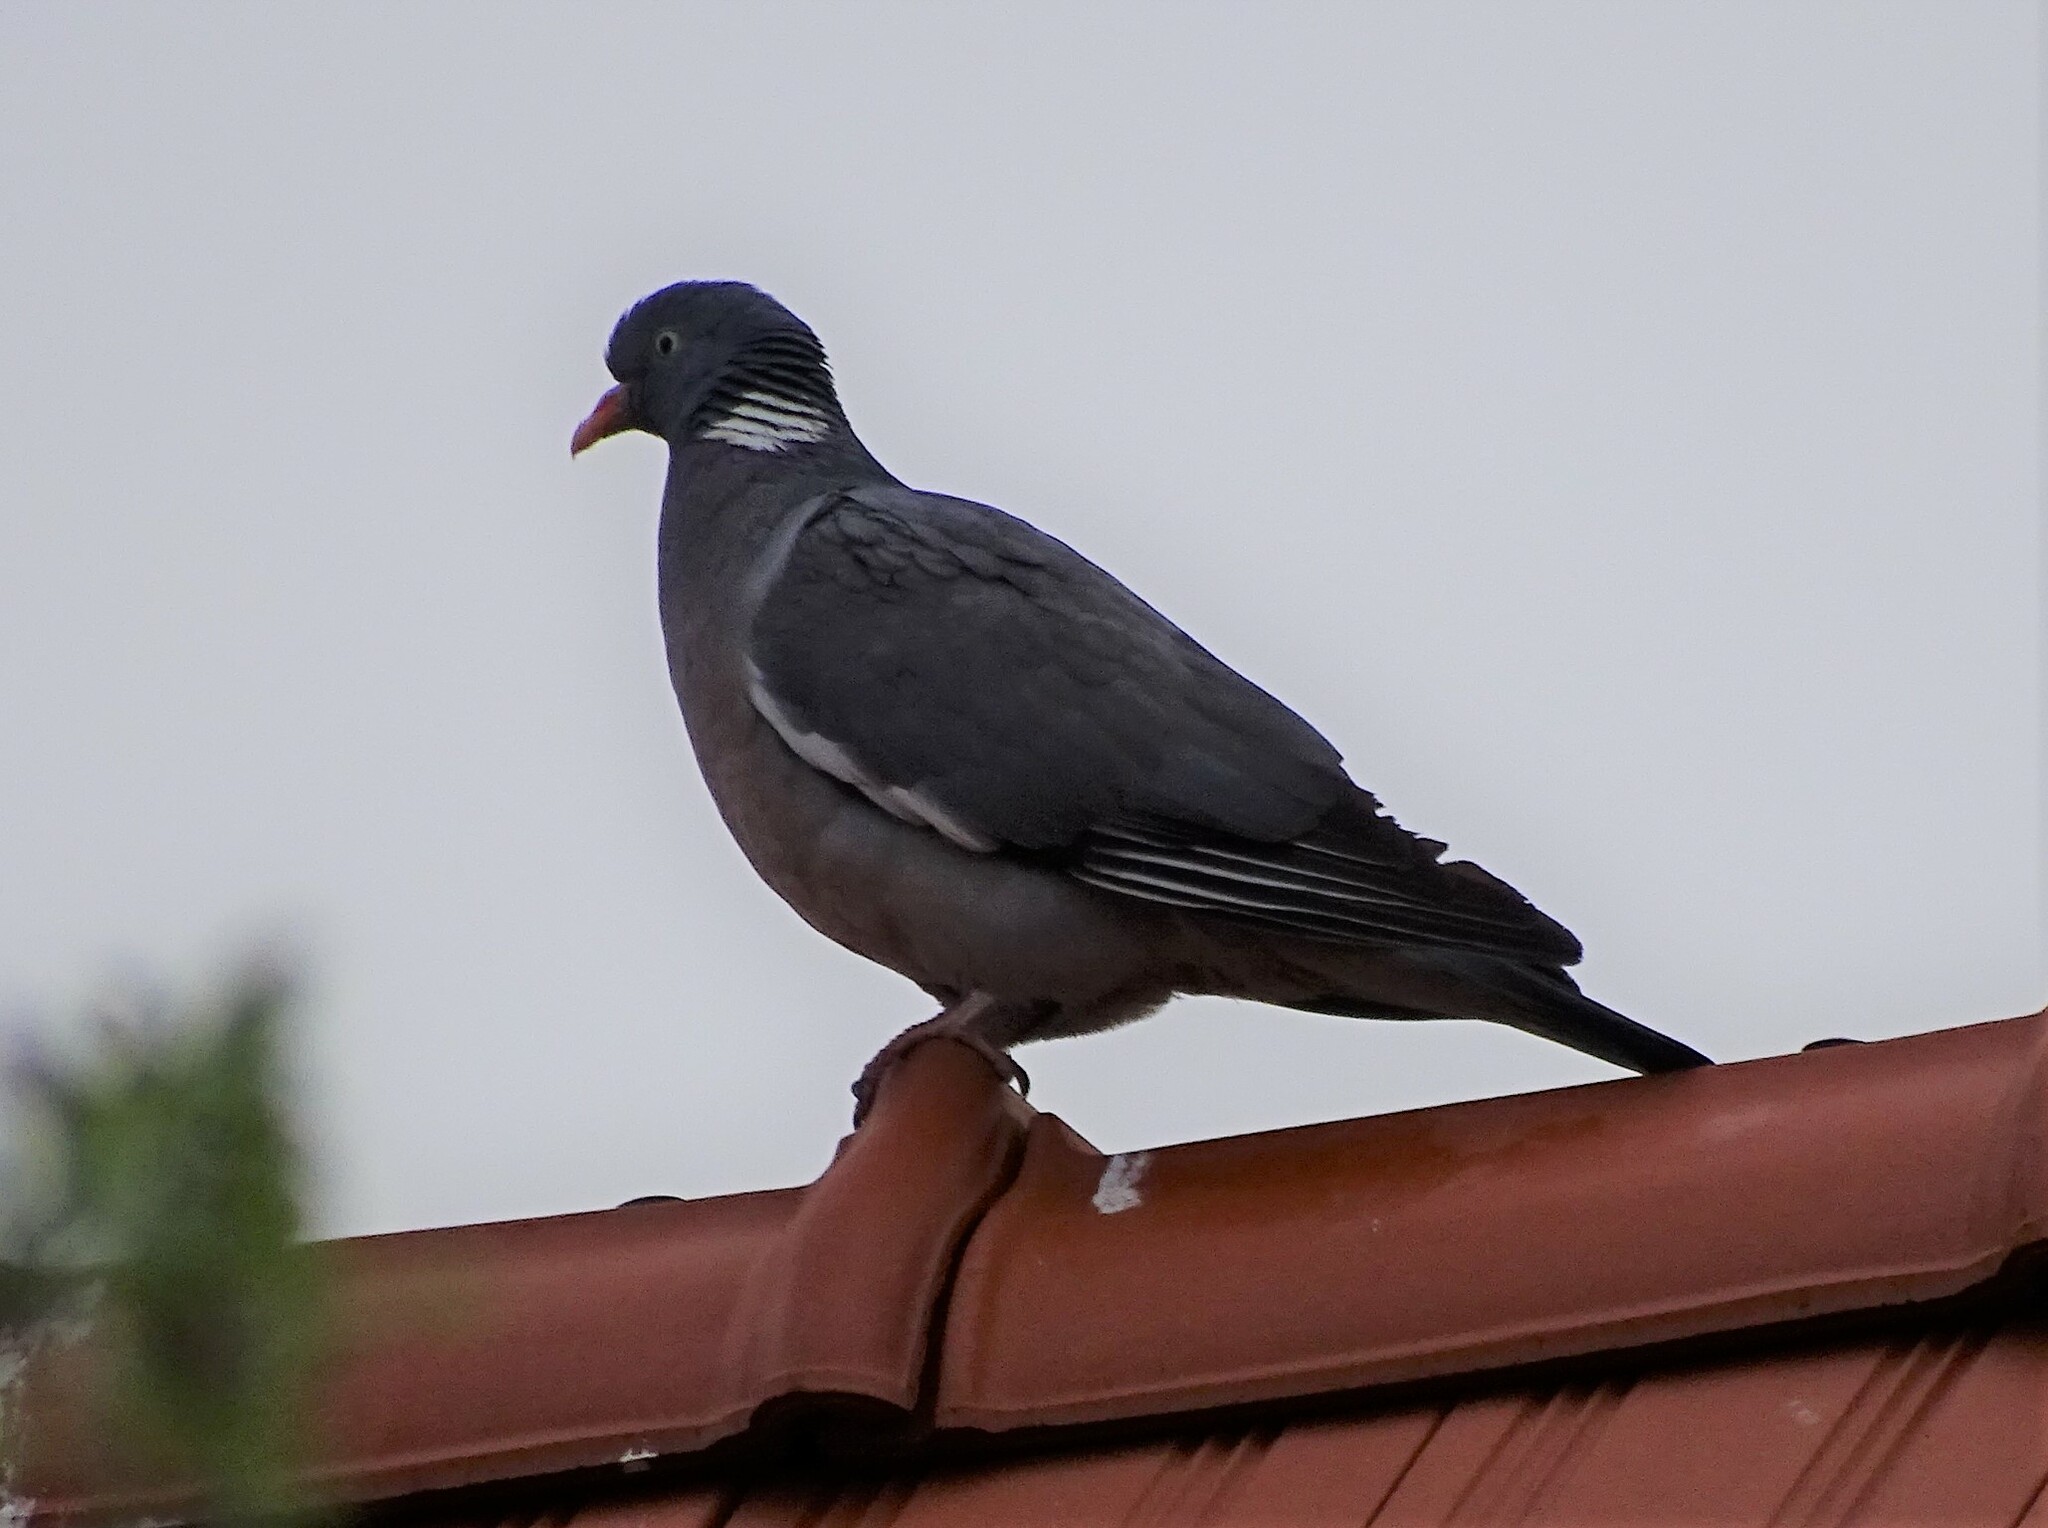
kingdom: Animalia
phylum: Chordata
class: Aves
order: Columbiformes
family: Columbidae
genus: Columba
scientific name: Columba palumbus
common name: Common wood pigeon
